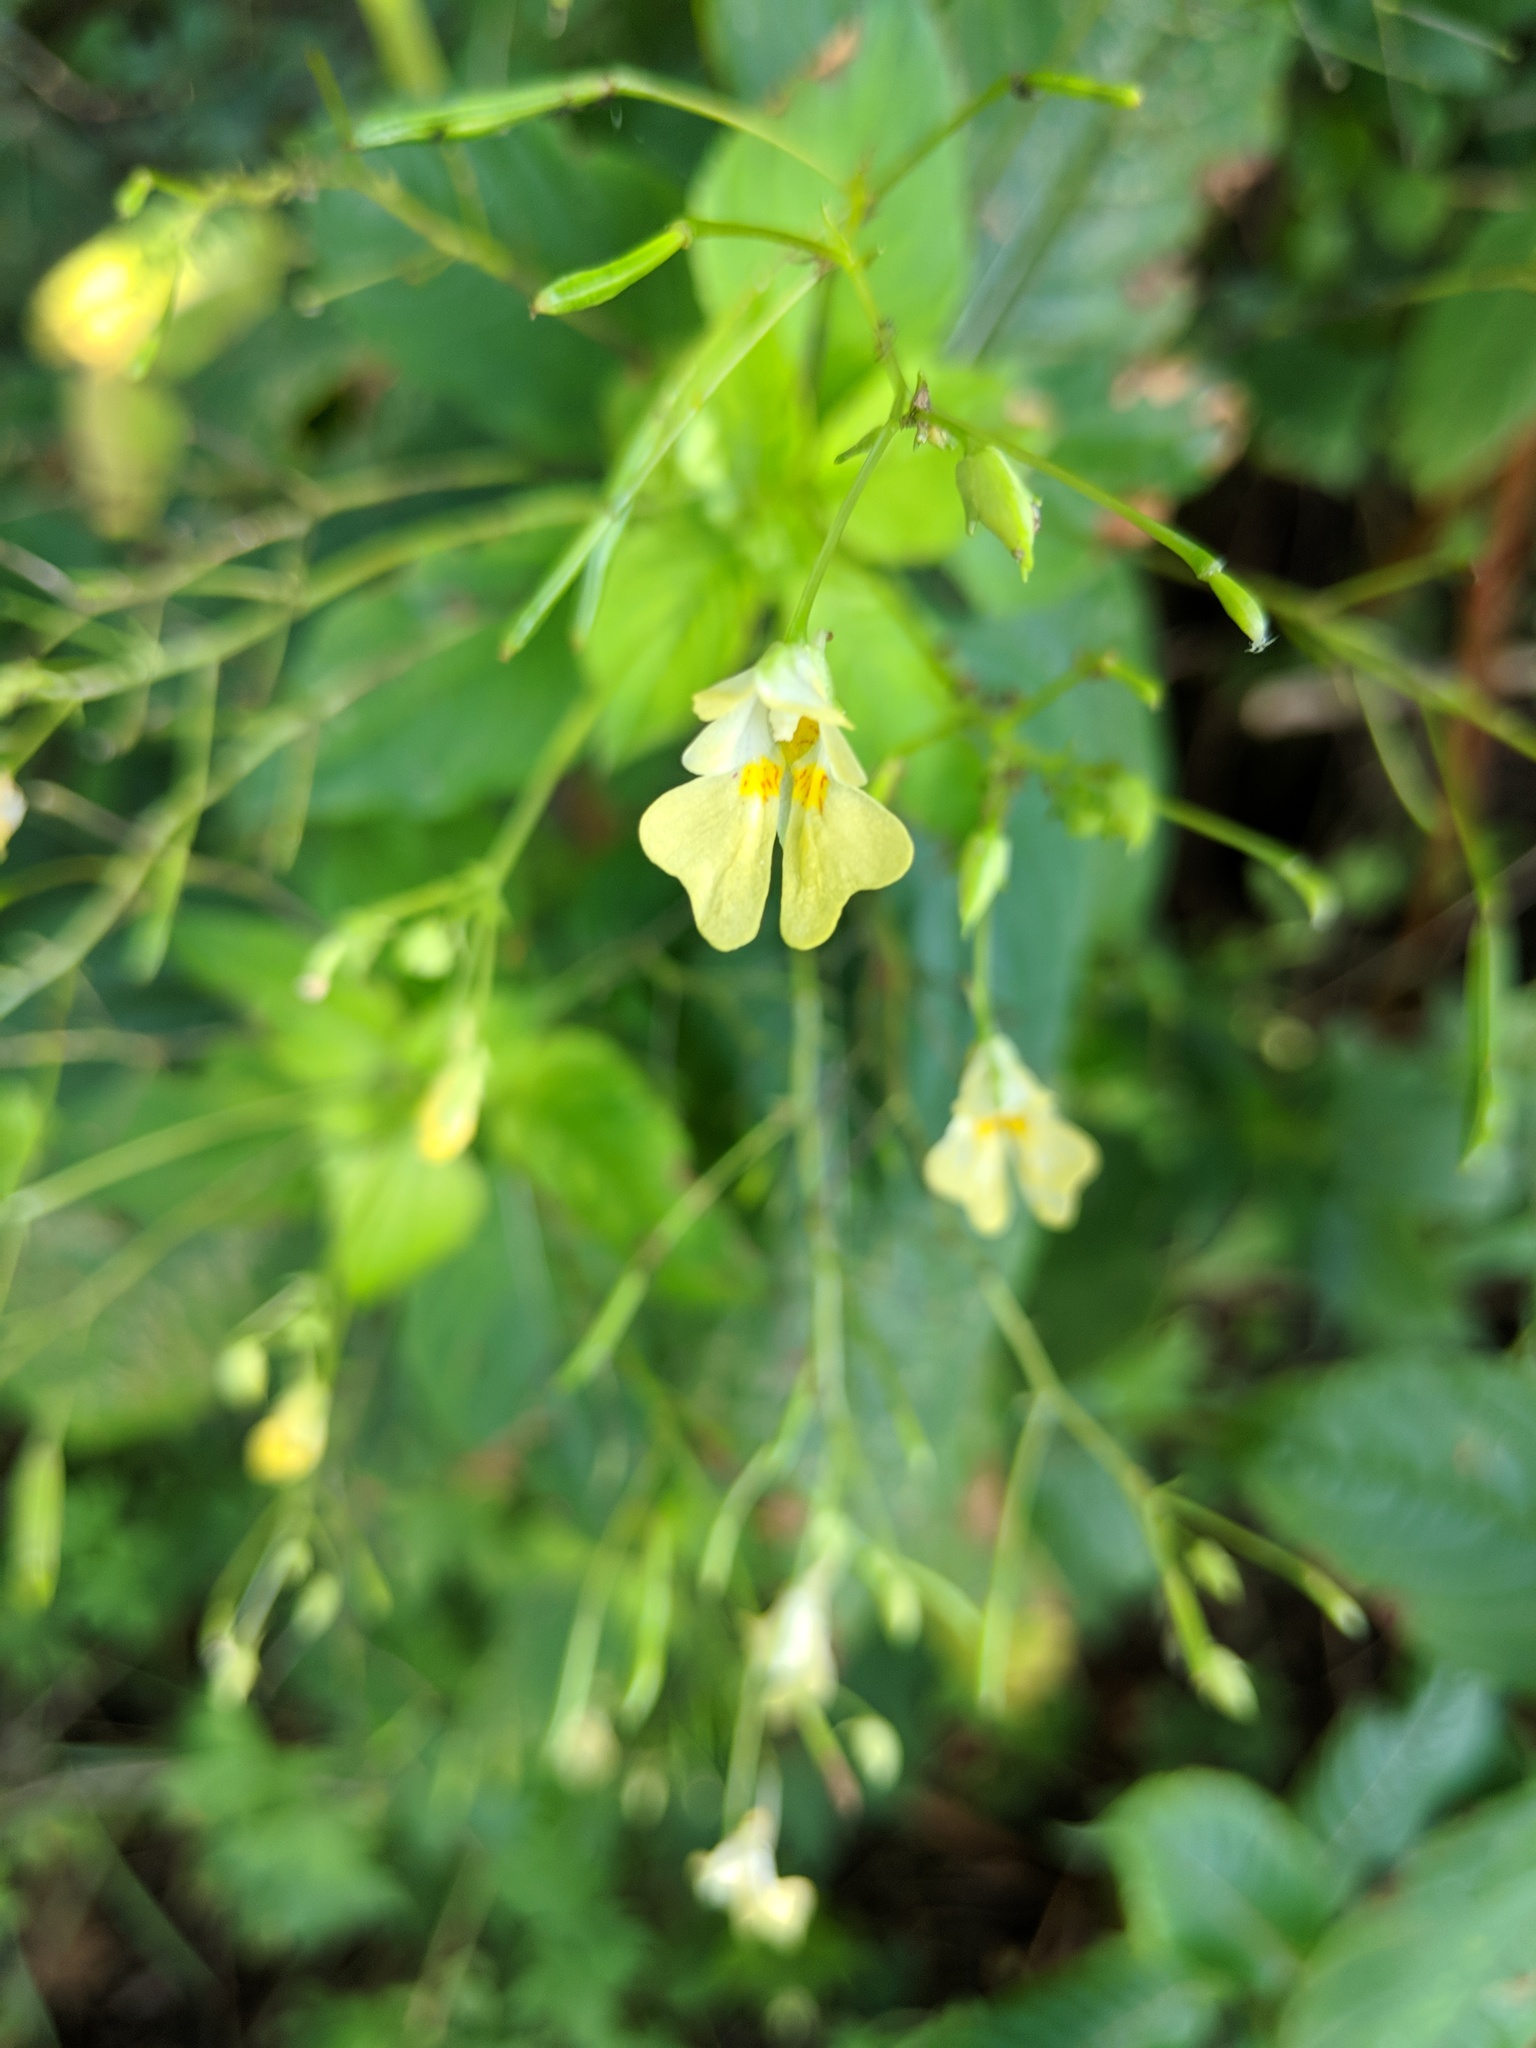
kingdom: Plantae
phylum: Tracheophyta
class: Magnoliopsida
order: Ericales
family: Balsaminaceae
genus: Impatiens
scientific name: Impatiens parviflora
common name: Small balsam
